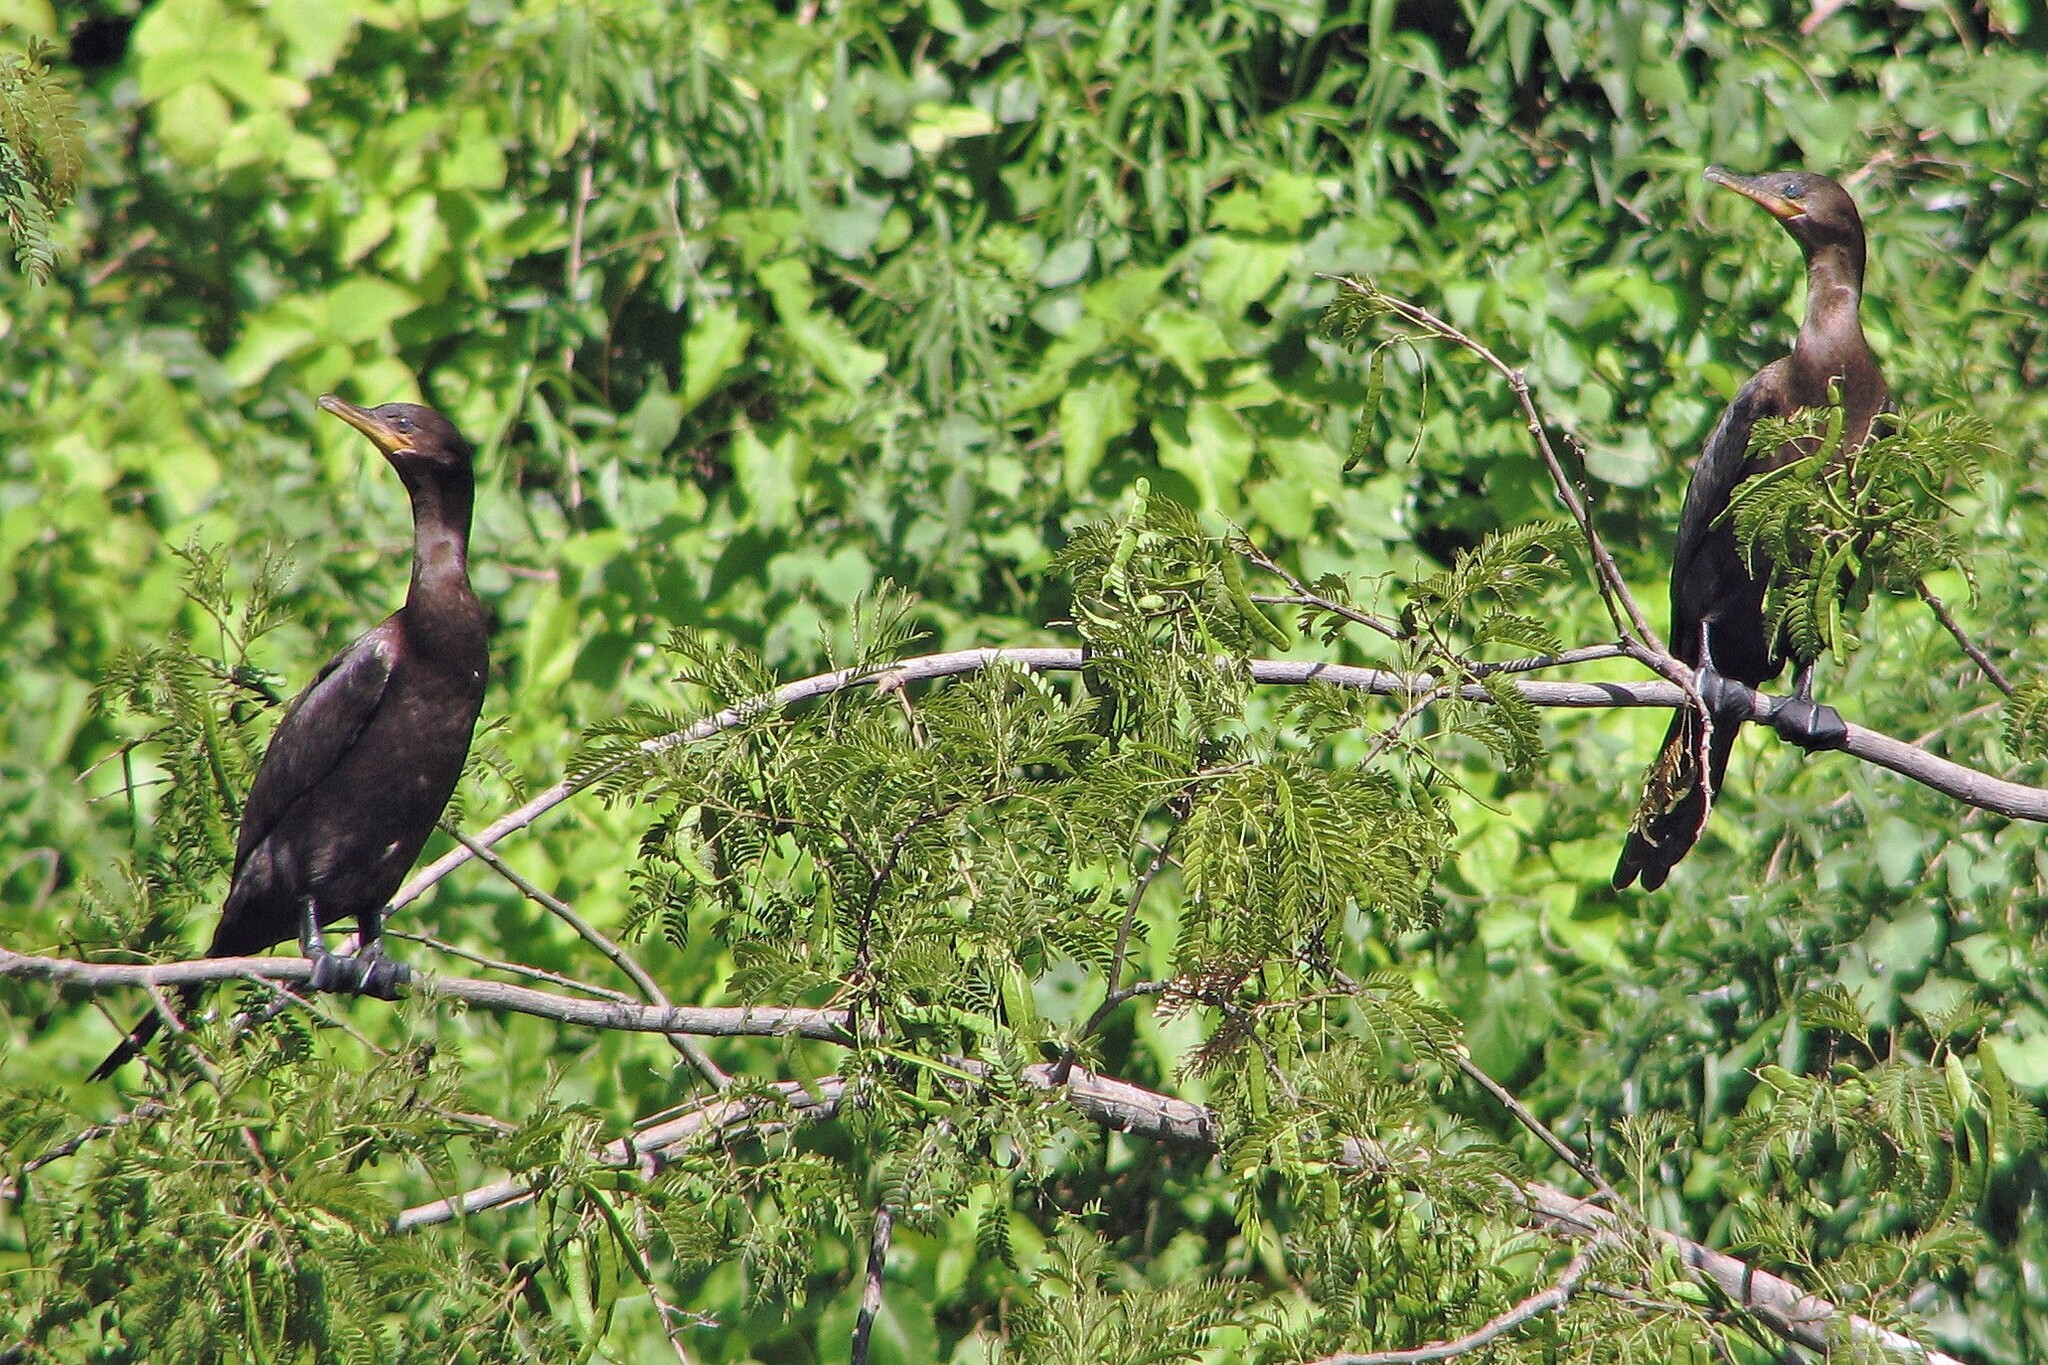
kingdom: Animalia
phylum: Chordata
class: Aves
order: Suliformes
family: Phalacrocoracidae
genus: Phalacrocorax
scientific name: Phalacrocorax brasilianus
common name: Neotropic cormorant
